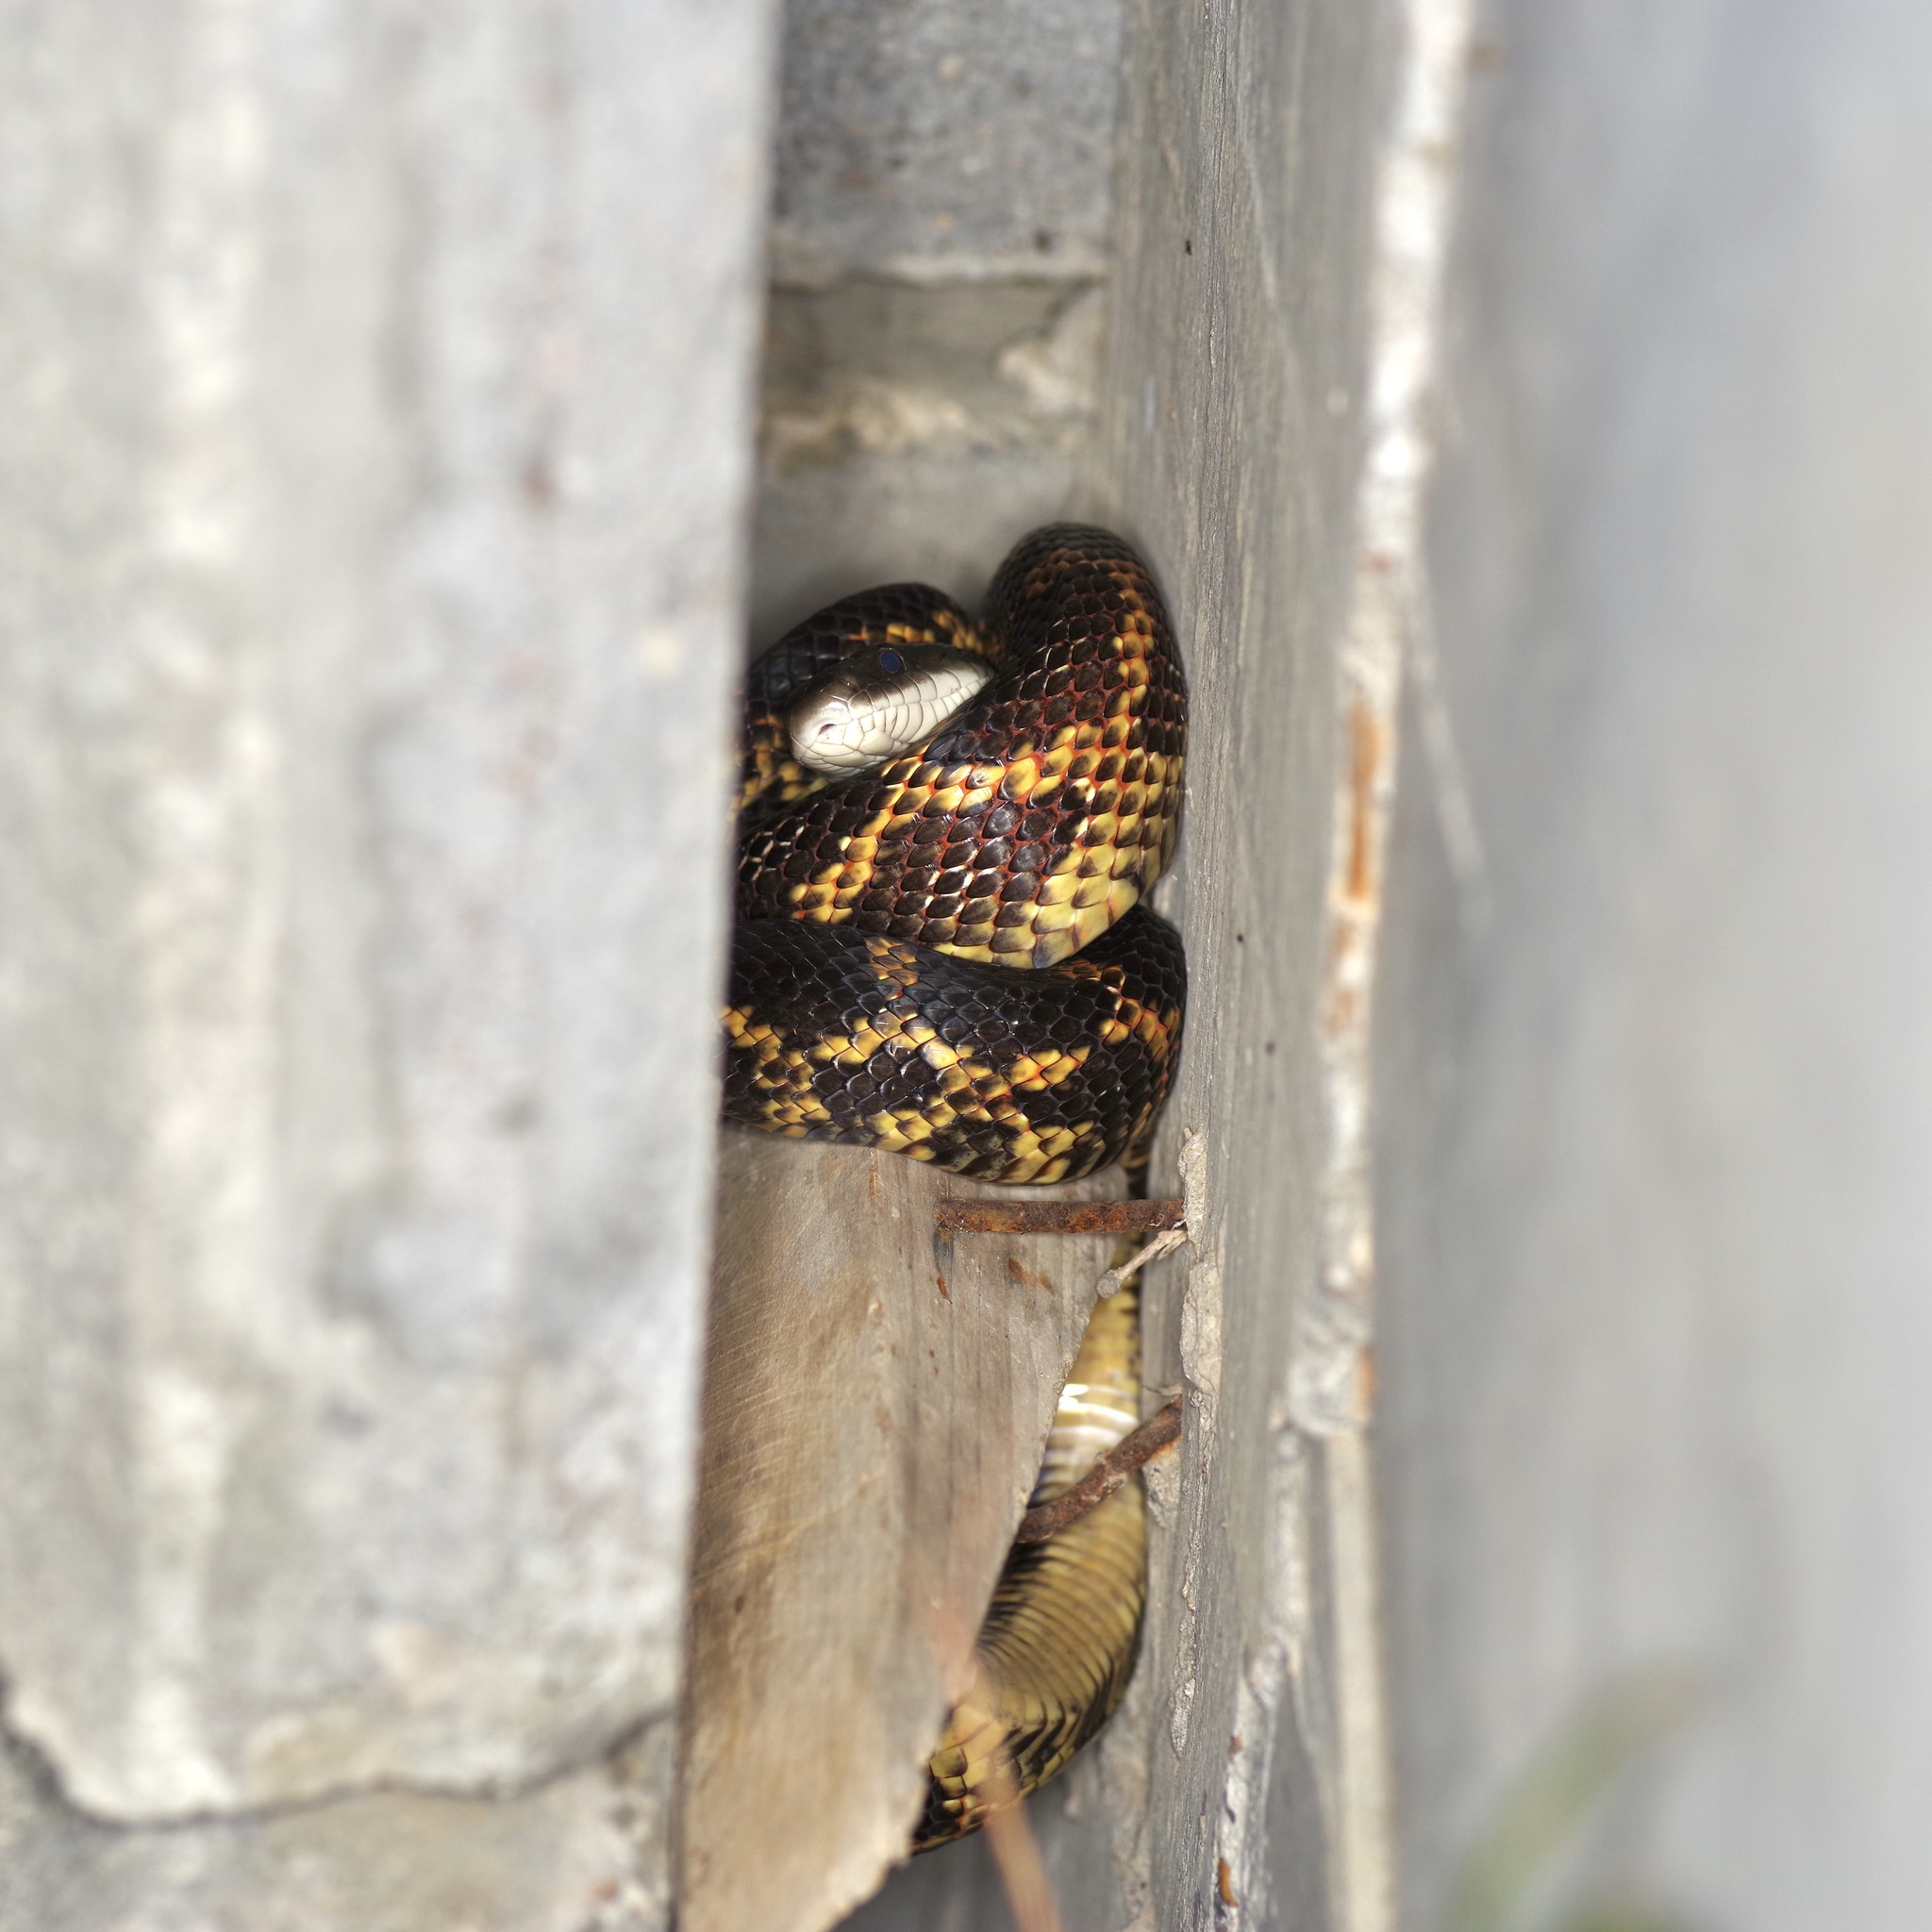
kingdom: Animalia
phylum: Chordata
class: Squamata
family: Colubridae
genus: Pantherophis
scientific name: Pantherophis obsoletus
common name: Black rat snake
